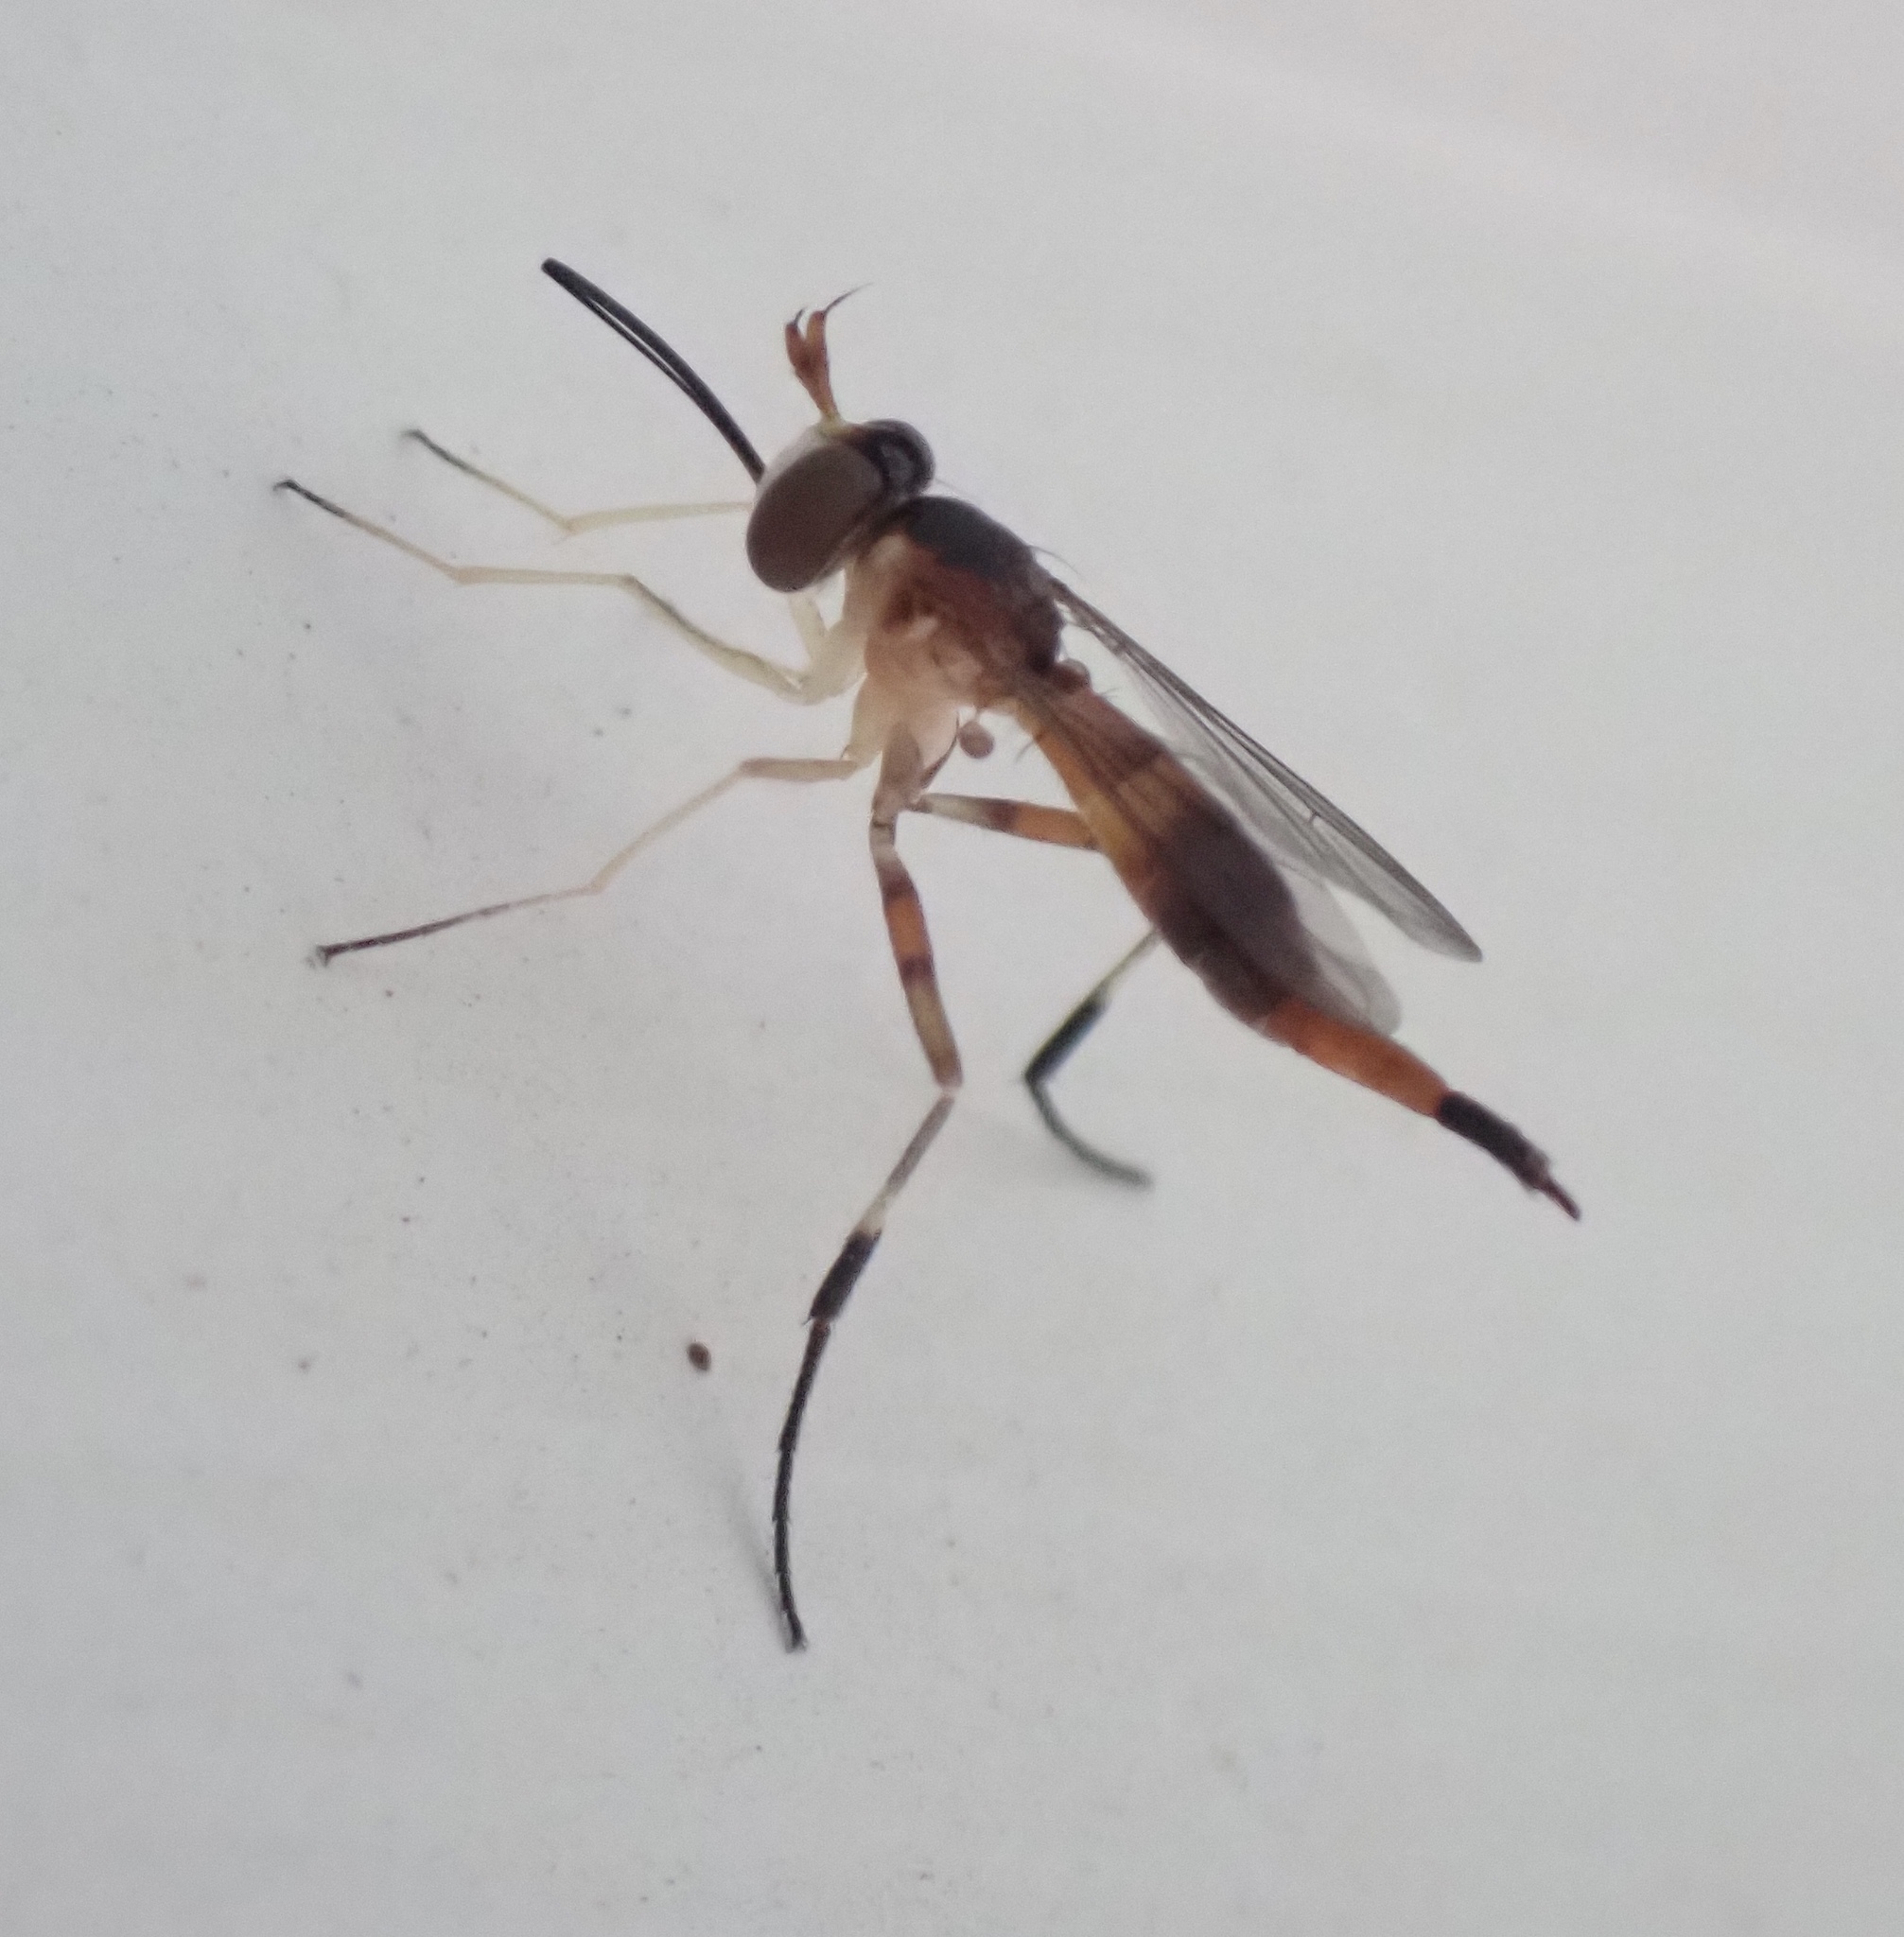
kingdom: Animalia
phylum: Arthropoda
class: Insecta
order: Diptera
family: Conopidae
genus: Stylogaster
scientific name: Stylogaster biannulata
